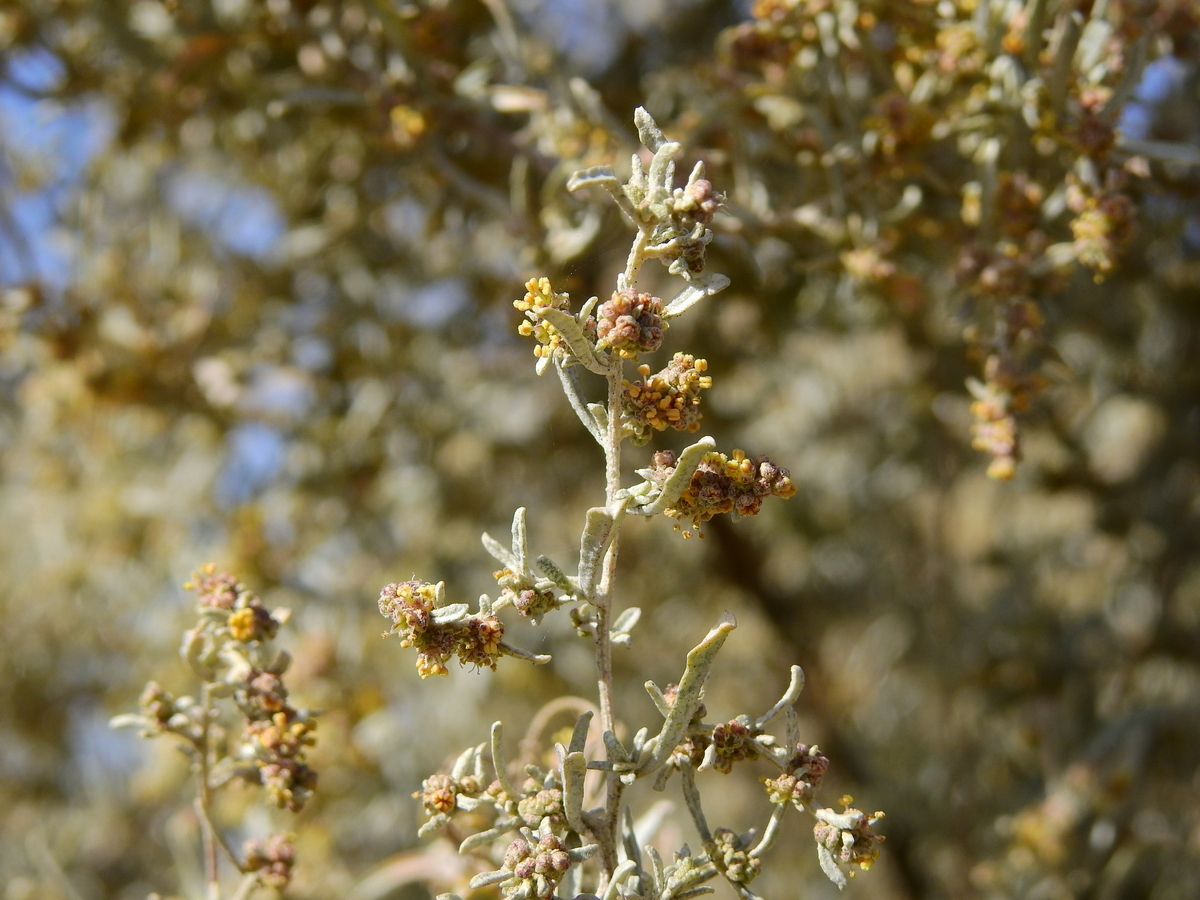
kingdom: Plantae
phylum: Tracheophyta
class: Magnoliopsida
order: Caryophyllales
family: Amaranthaceae
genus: Atriplex
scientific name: Atriplex lampa
